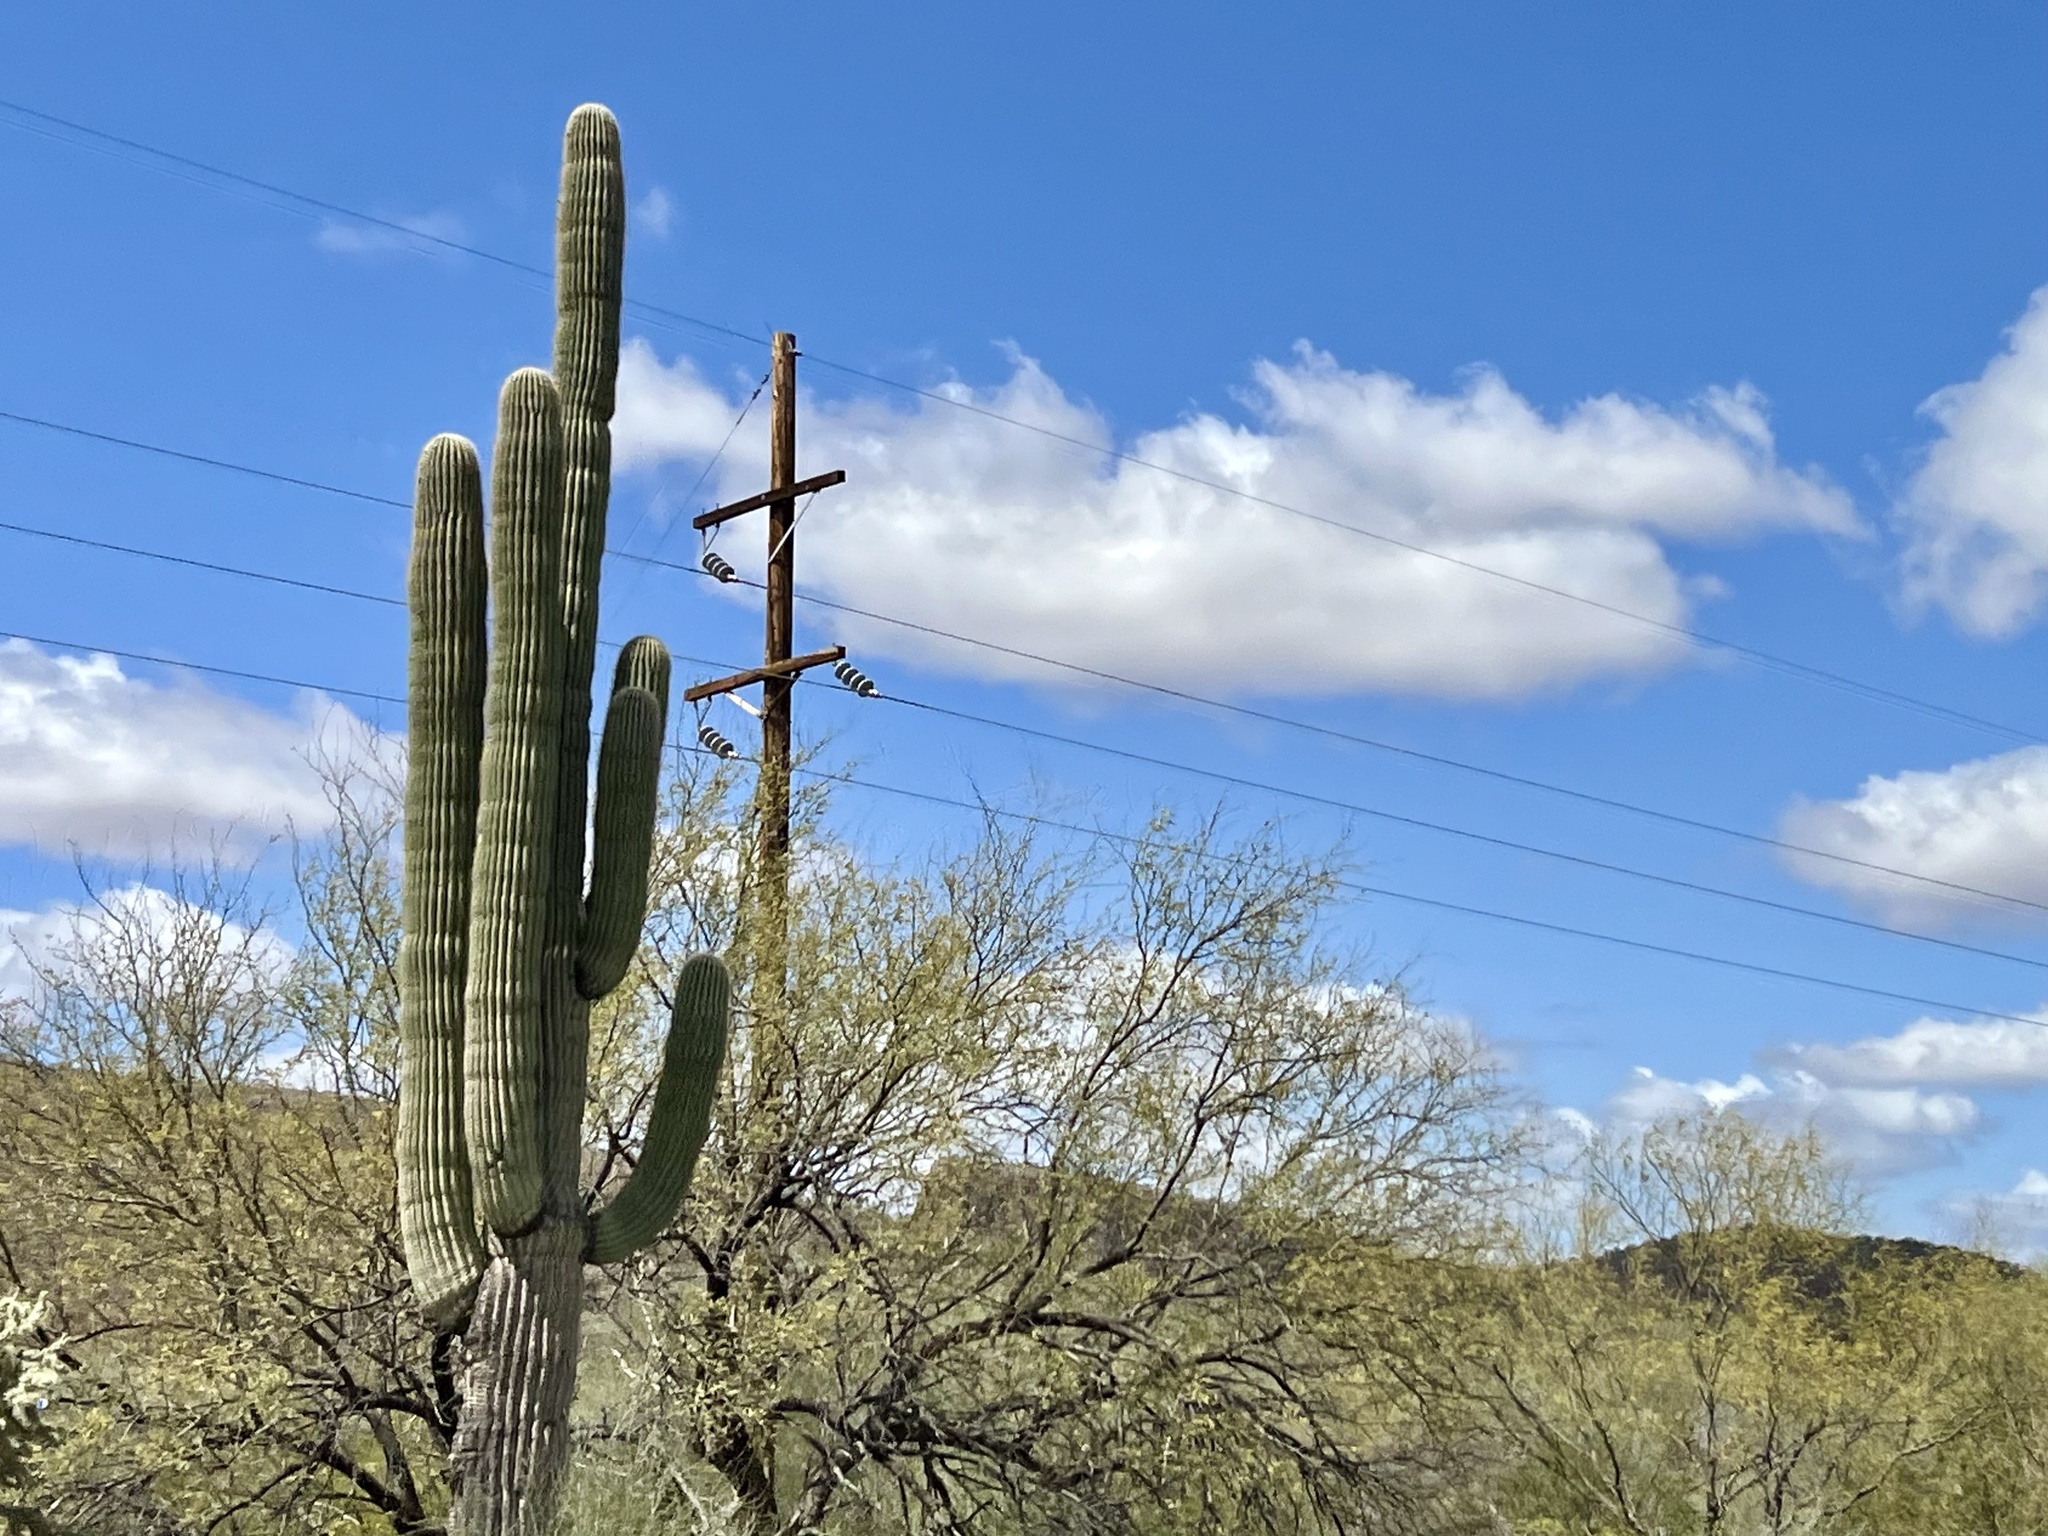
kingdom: Plantae
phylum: Tracheophyta
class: Magnoliopsida
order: Caryophyllales
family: Cactaceae
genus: Carnegiea
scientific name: Carnegiea gigantea
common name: Saguaro
